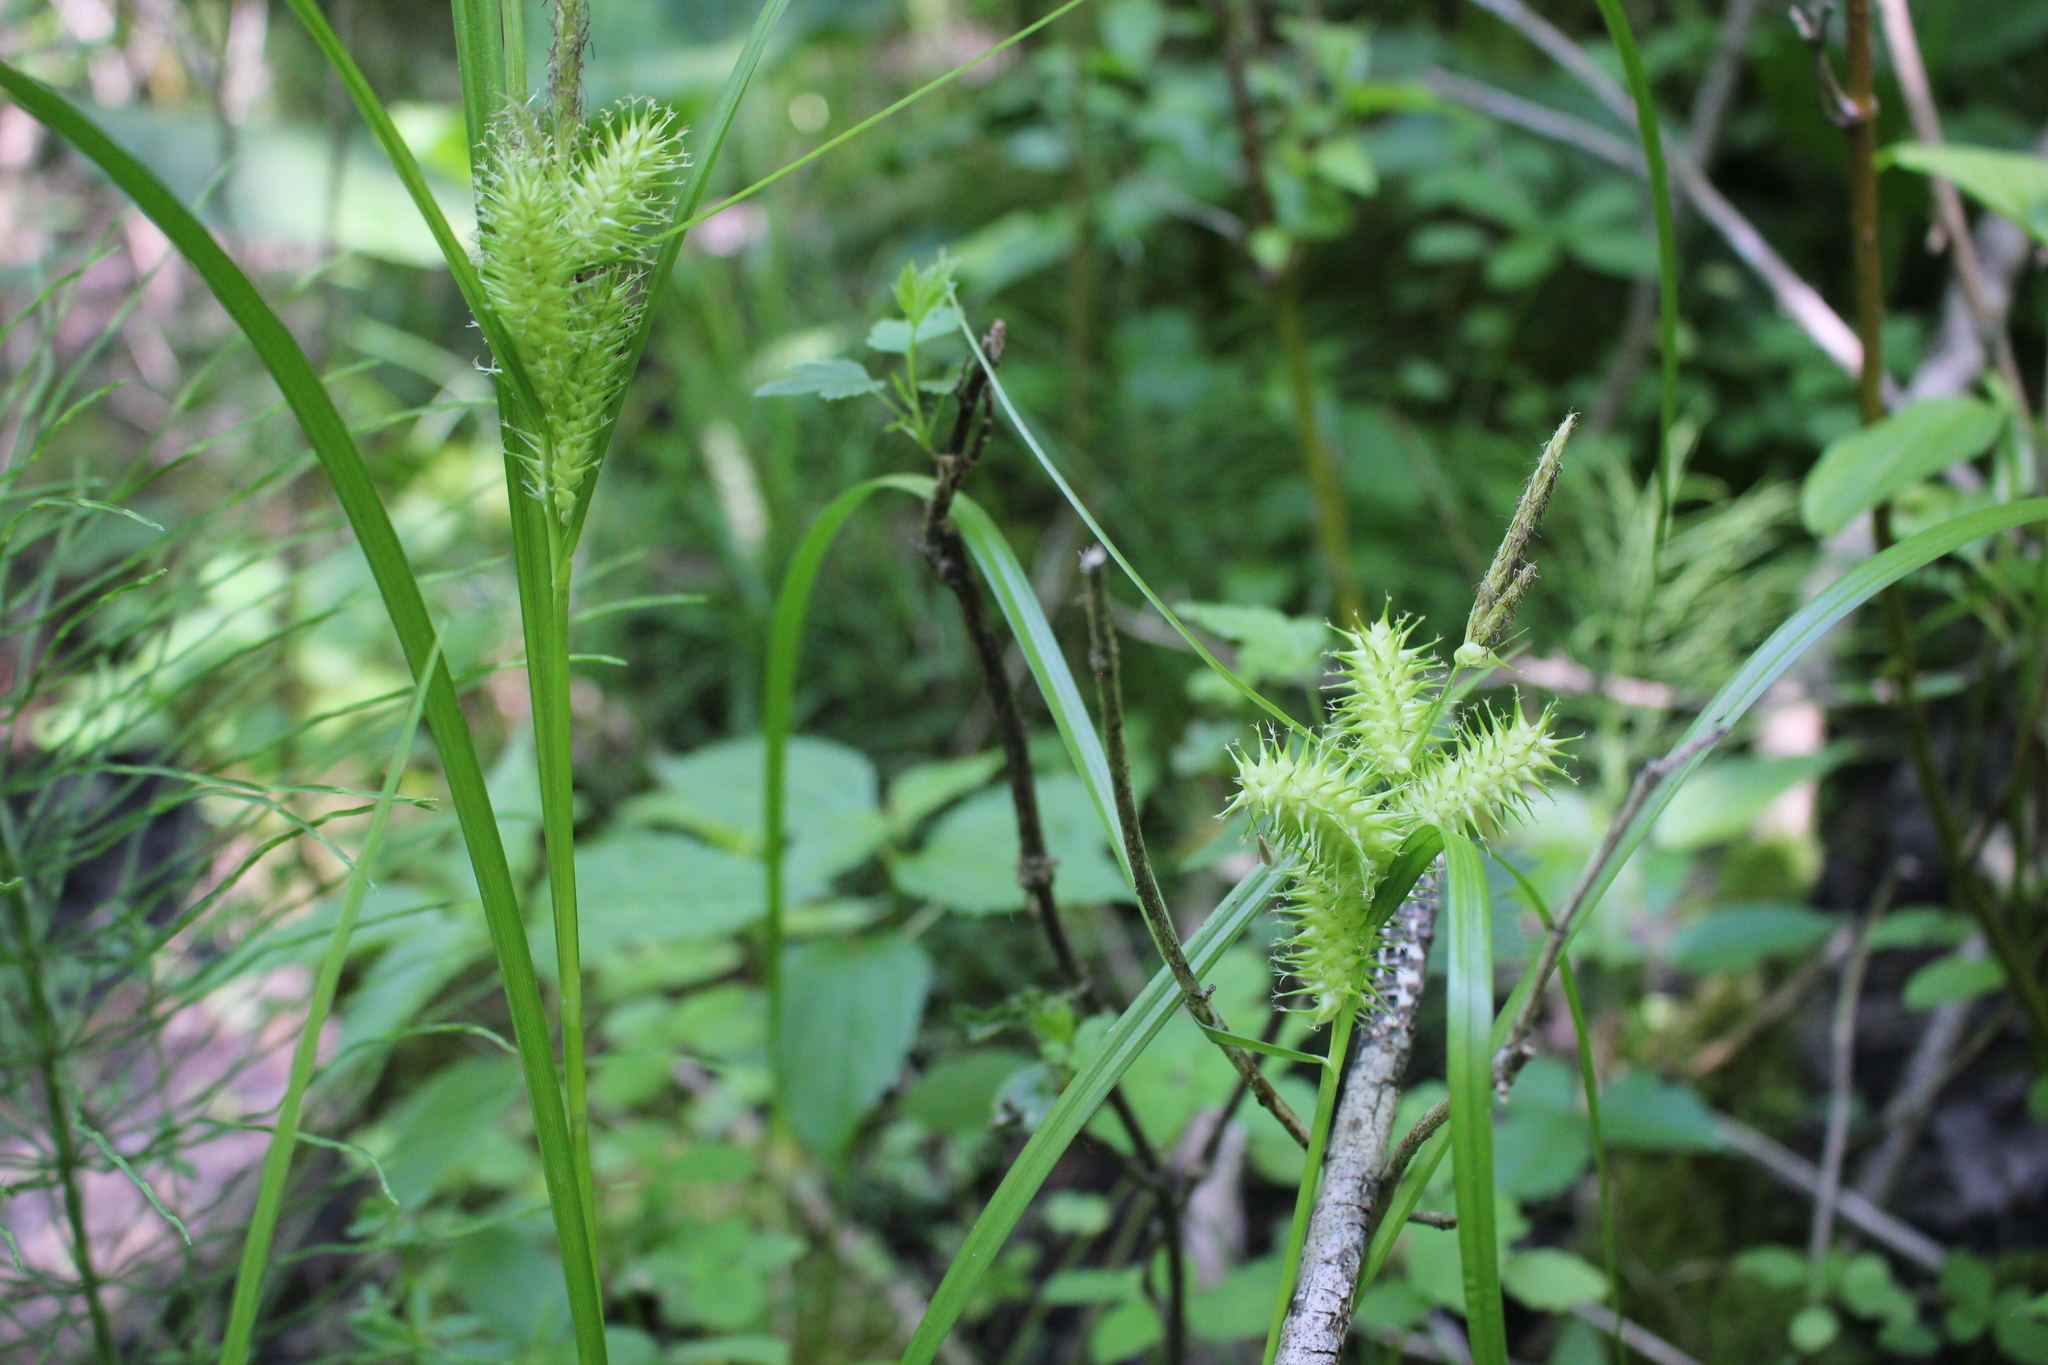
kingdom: Plantae
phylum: Tracheophyta
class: Liliopsida
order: Poales
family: Cyperaceae
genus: Carex
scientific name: Carex retrorsa
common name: Knot-sheath sedge
